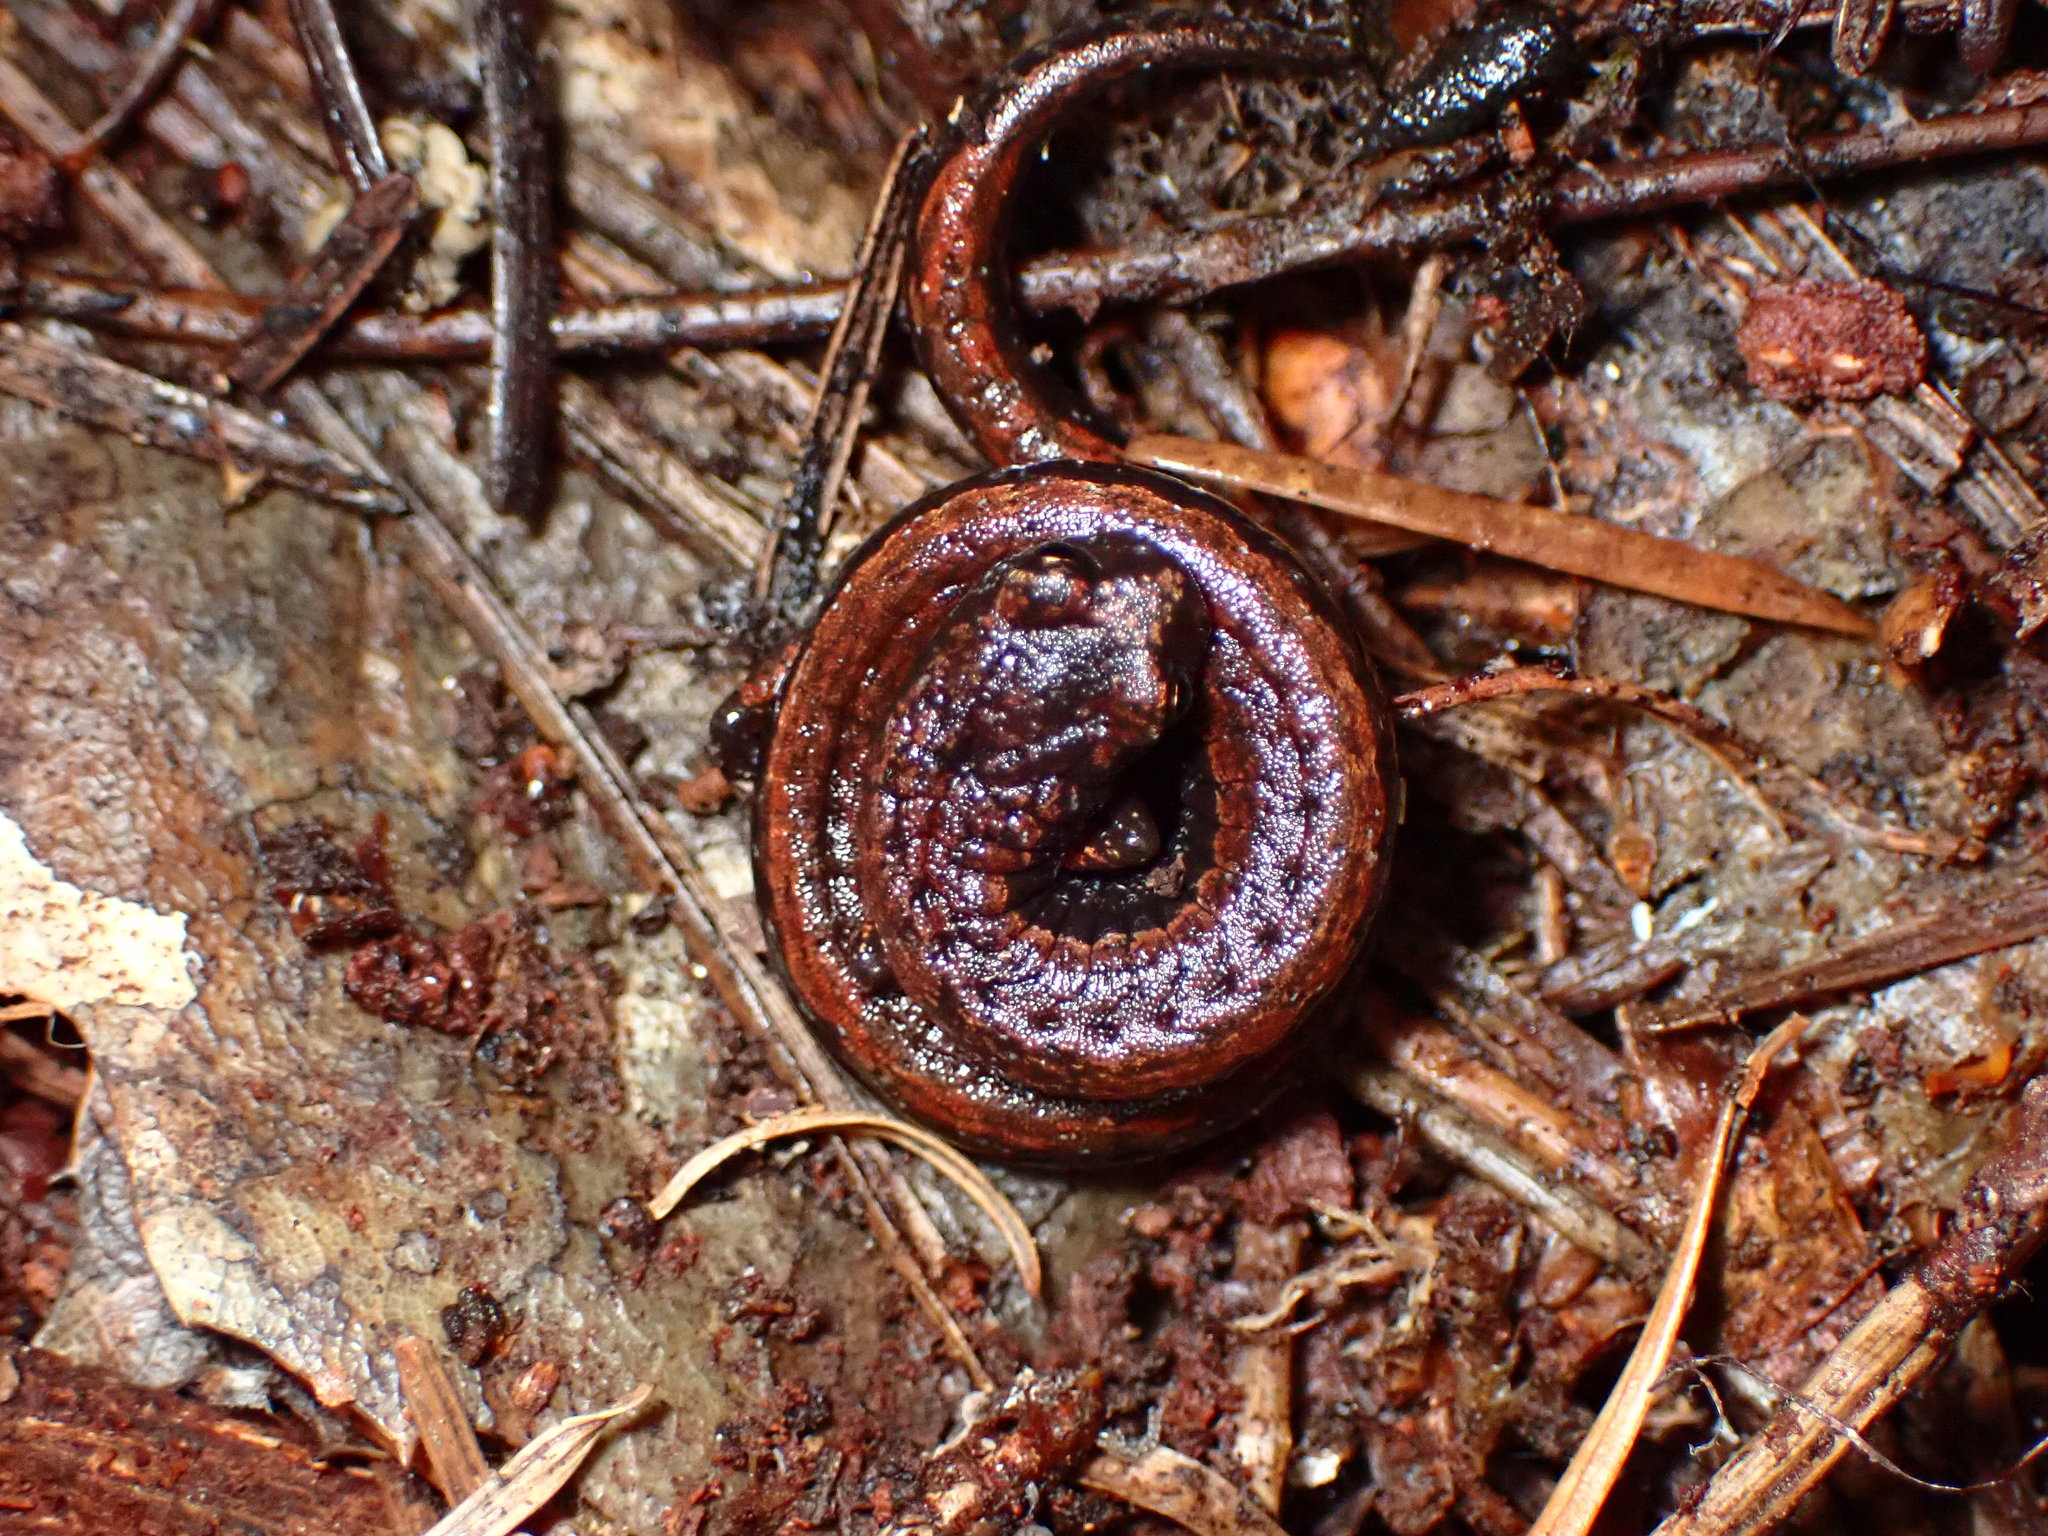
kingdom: Animalia
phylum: Chordata
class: Amphibia
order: Caudata
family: Plethodontidae
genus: Batrachoseps
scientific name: Batrachoseps attenuatus
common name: California slender salamander
